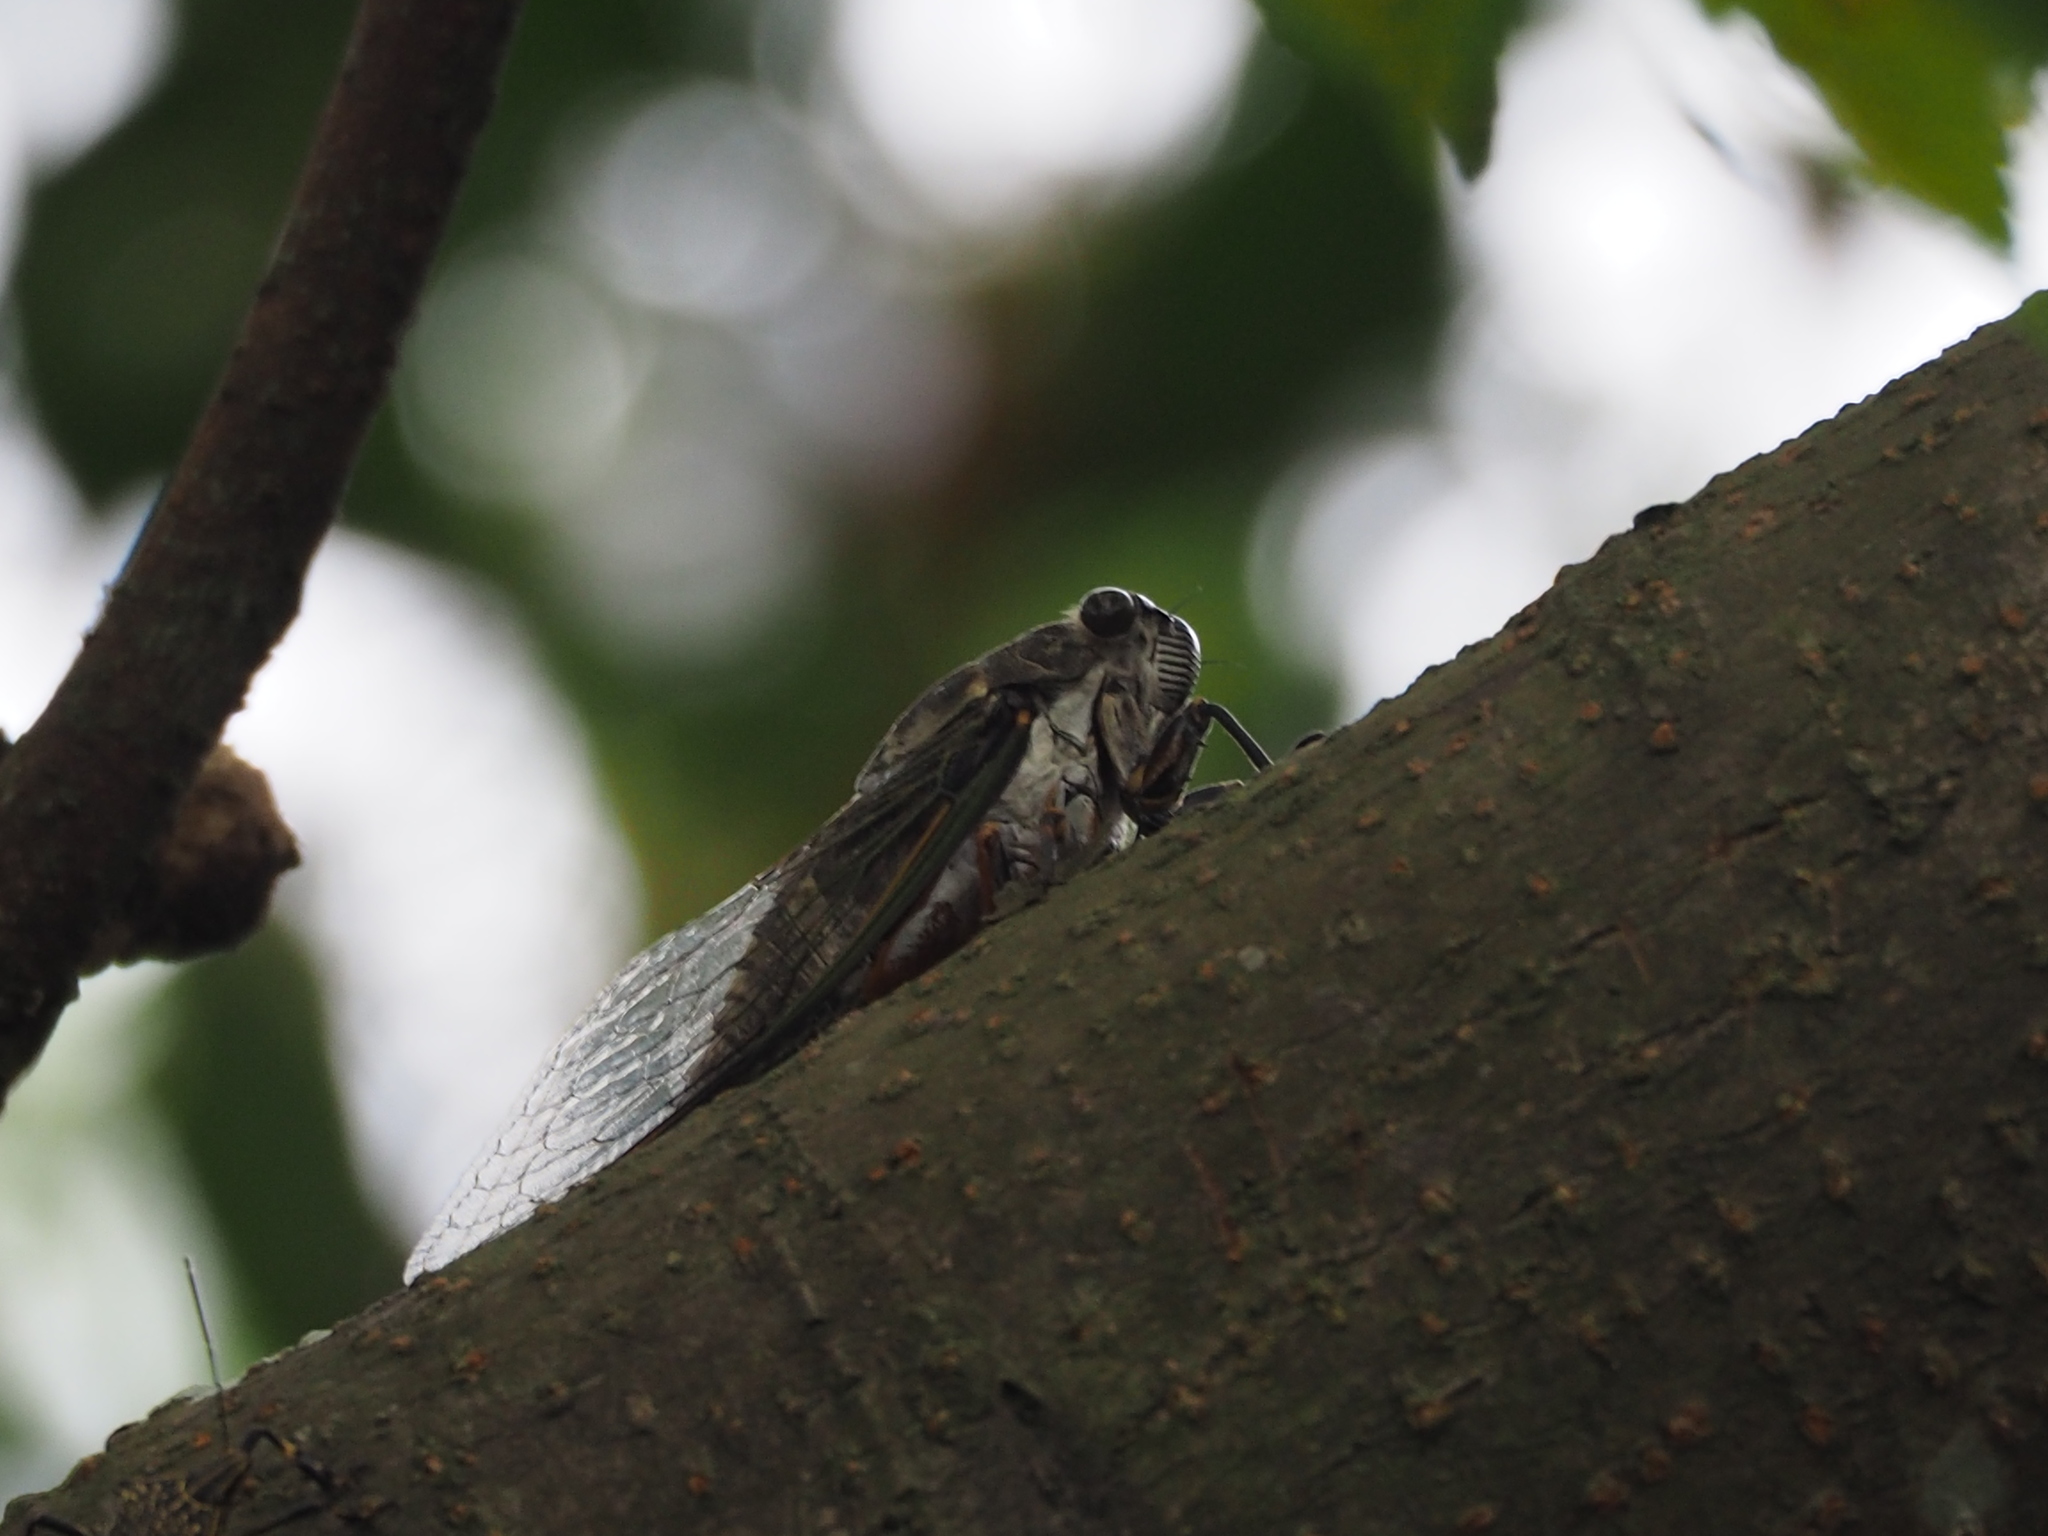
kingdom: Animalia
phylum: Arthropoda
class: Insecta
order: Hemiptera
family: Cicadidae
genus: Cryptotympana
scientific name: Cryptotympana takasagona
